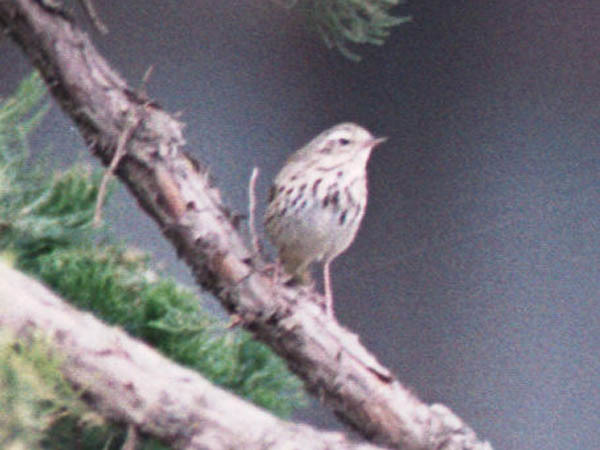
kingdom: Animalia
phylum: Chordata
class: Aves
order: Passeriformes
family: Motacillidae
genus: Anthus
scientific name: Anthus hodgsoni
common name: Olive-backed pipit
